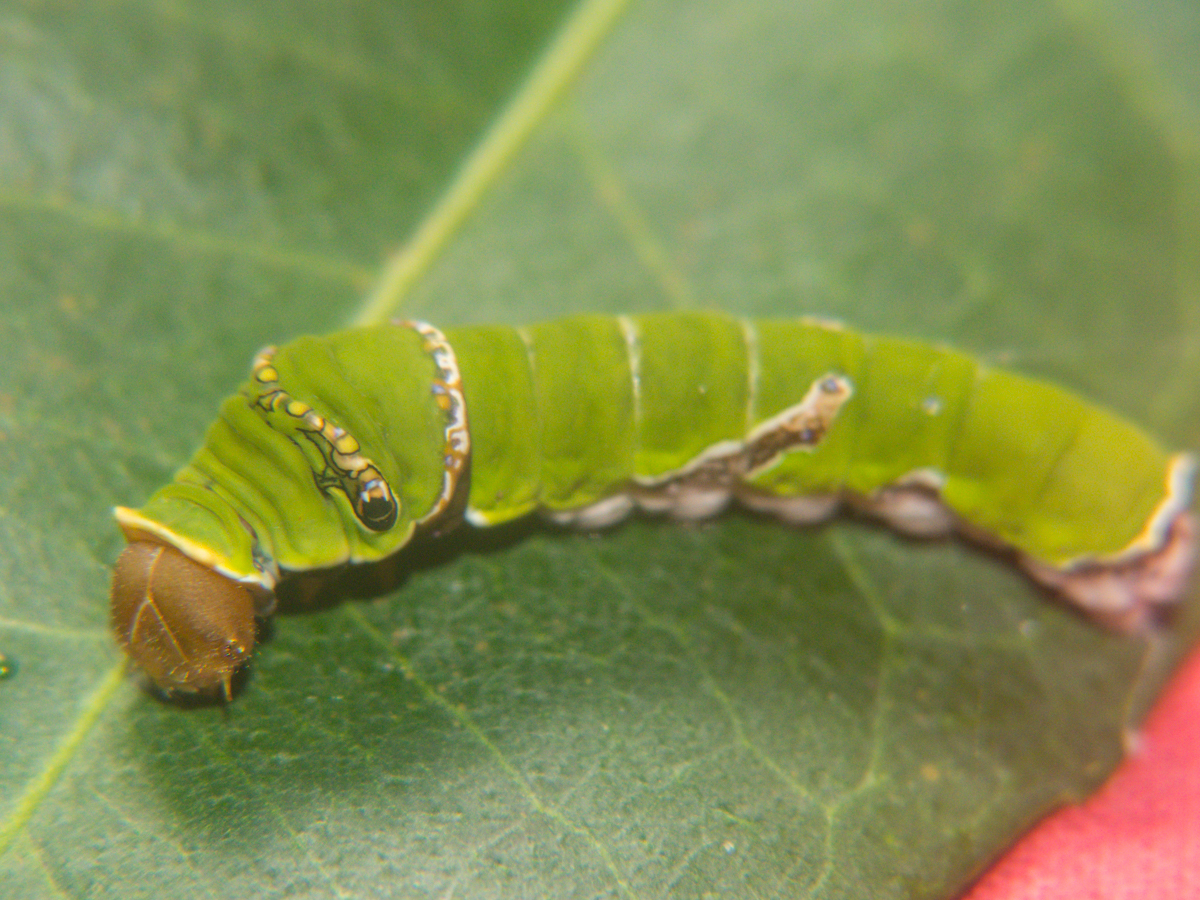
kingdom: Animalia
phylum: Arthropoda
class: Insecta
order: Lepidoptera
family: Papilionidae
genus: Papilio
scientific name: Papilio polytes
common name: Common mormon
